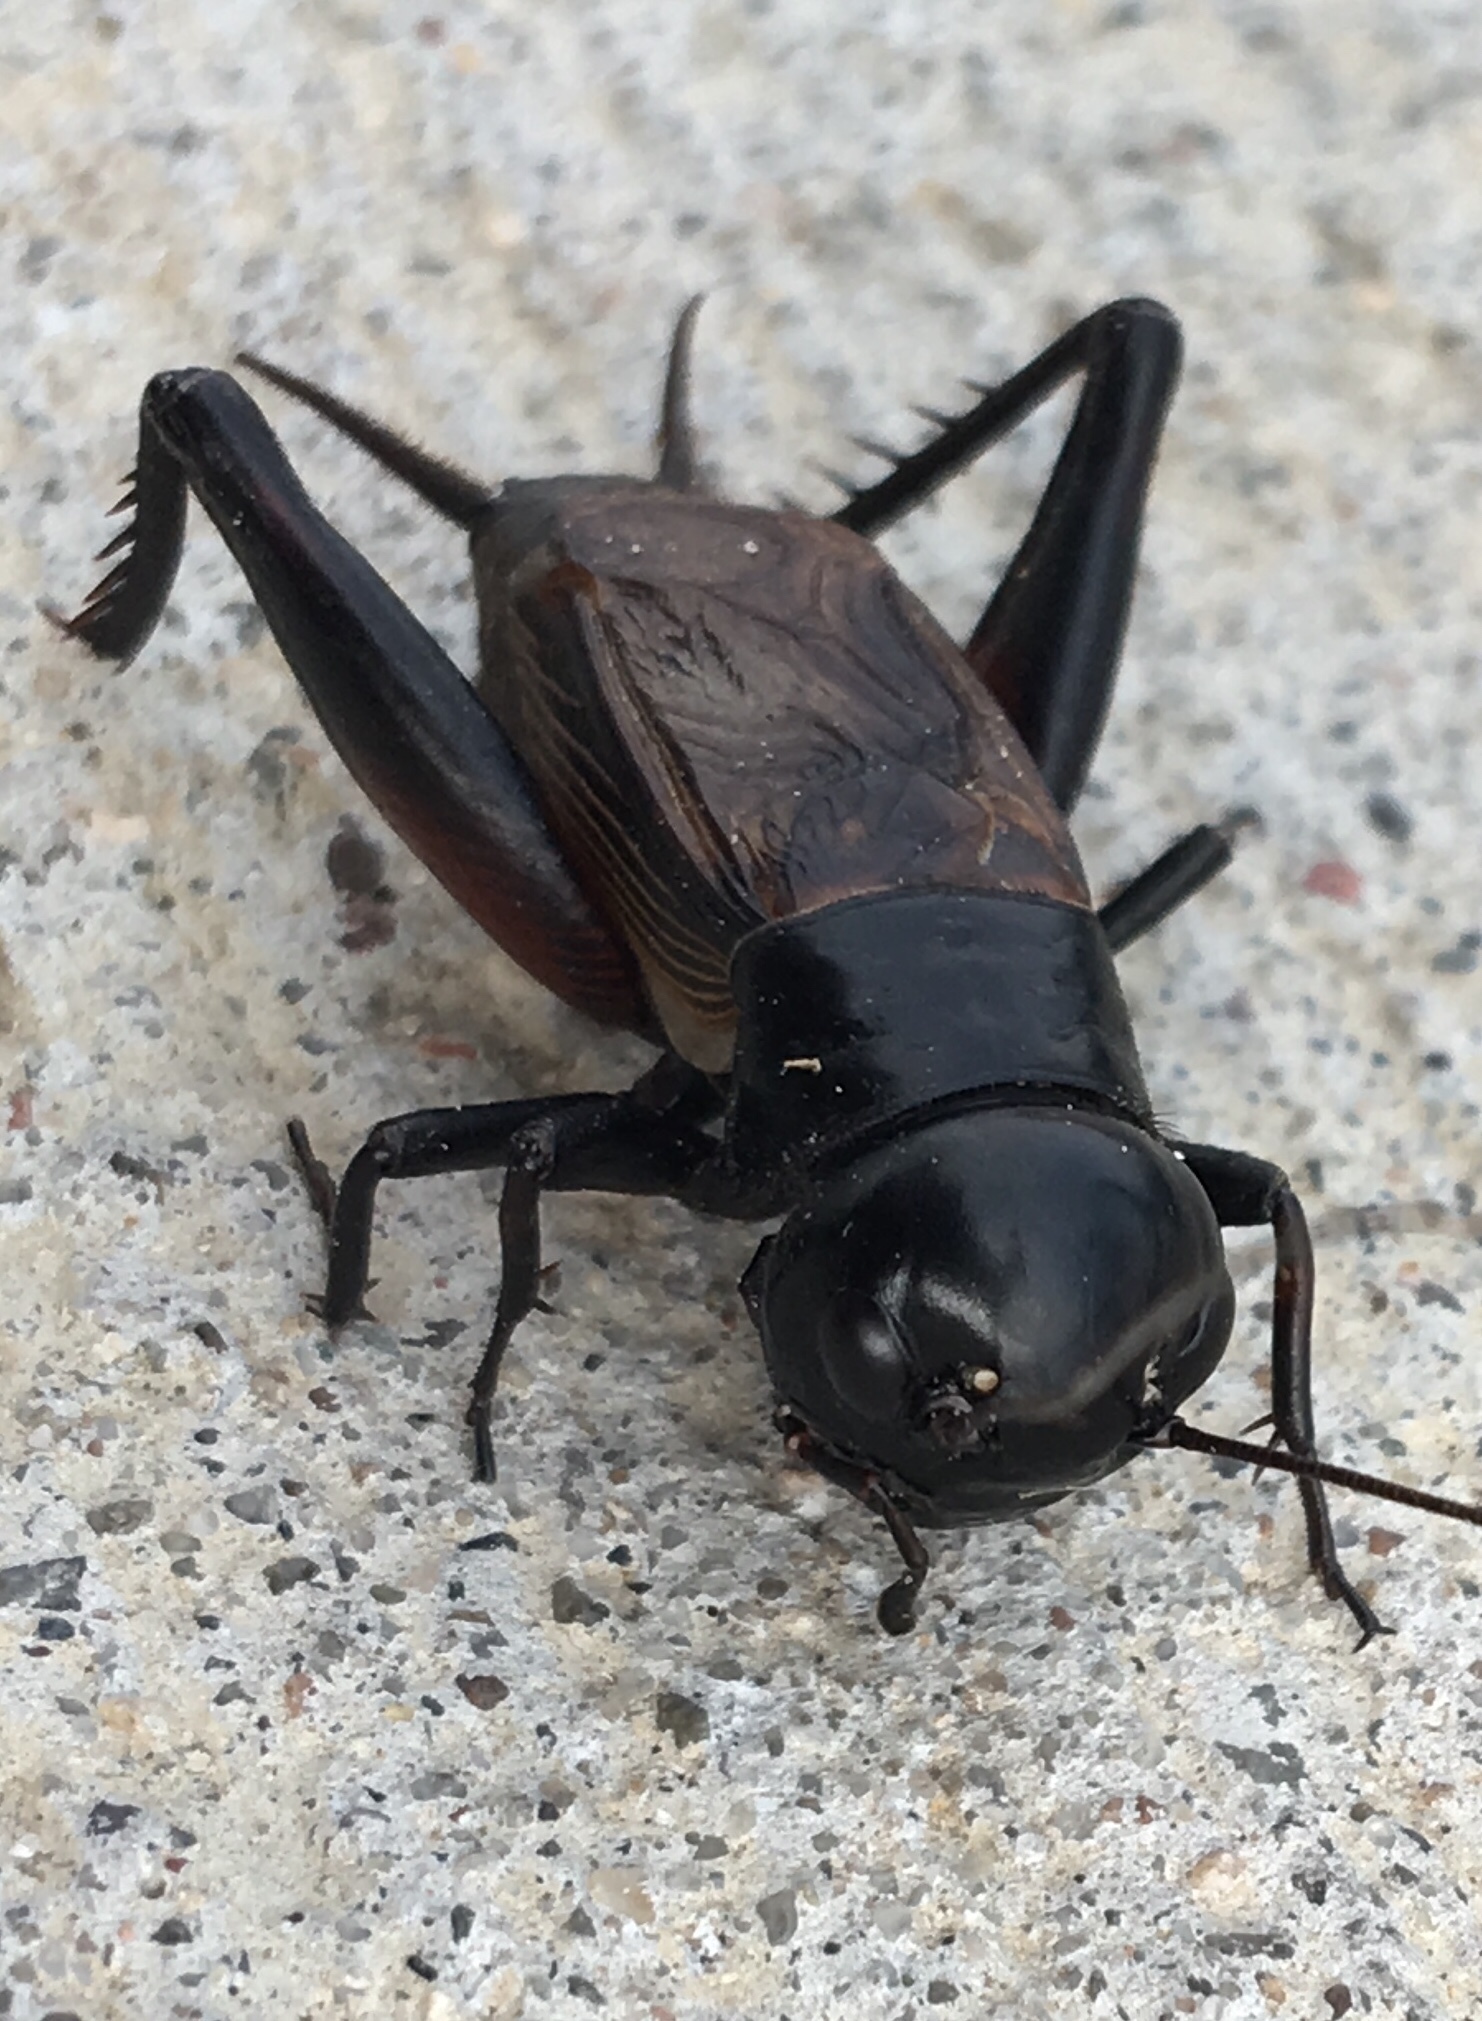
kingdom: Animalia
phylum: Arthropoda
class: Insecta
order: Orthoptera
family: Gryllidae
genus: Gryllus
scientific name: Gryllus pennsylvanicus
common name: Fall field cricket
